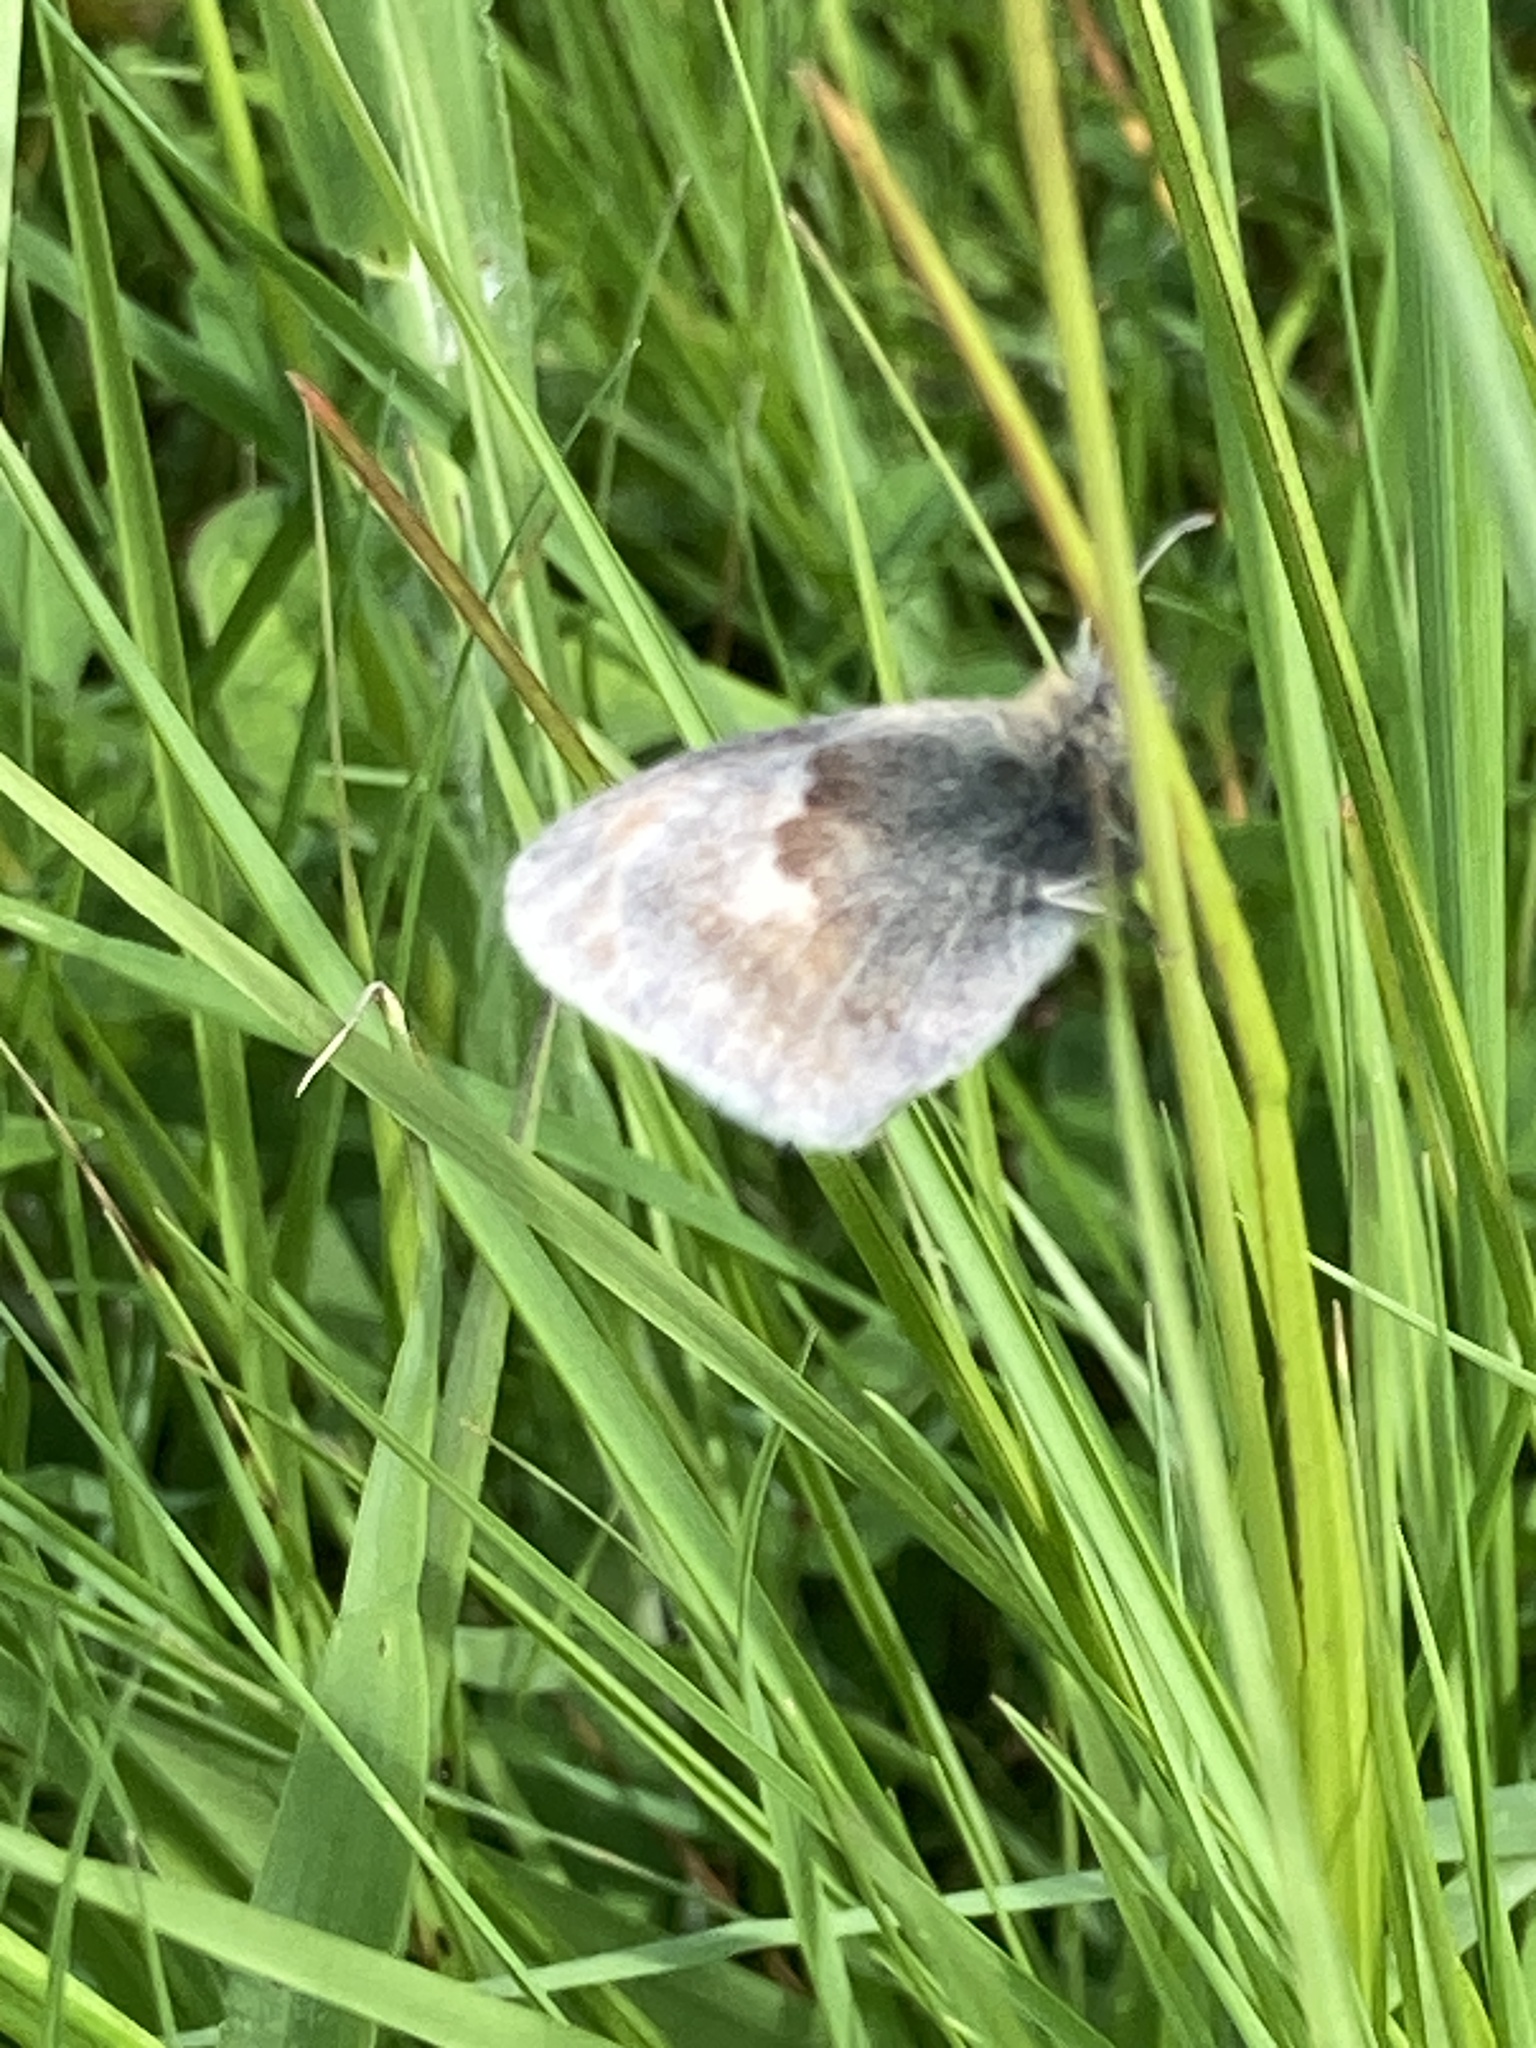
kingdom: Animalia
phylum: Arthropoda
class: Insecta
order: Lepidoptera
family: Nymphalidae
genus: Coenonympha
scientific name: Coenonympha pamphilus
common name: Small heath
